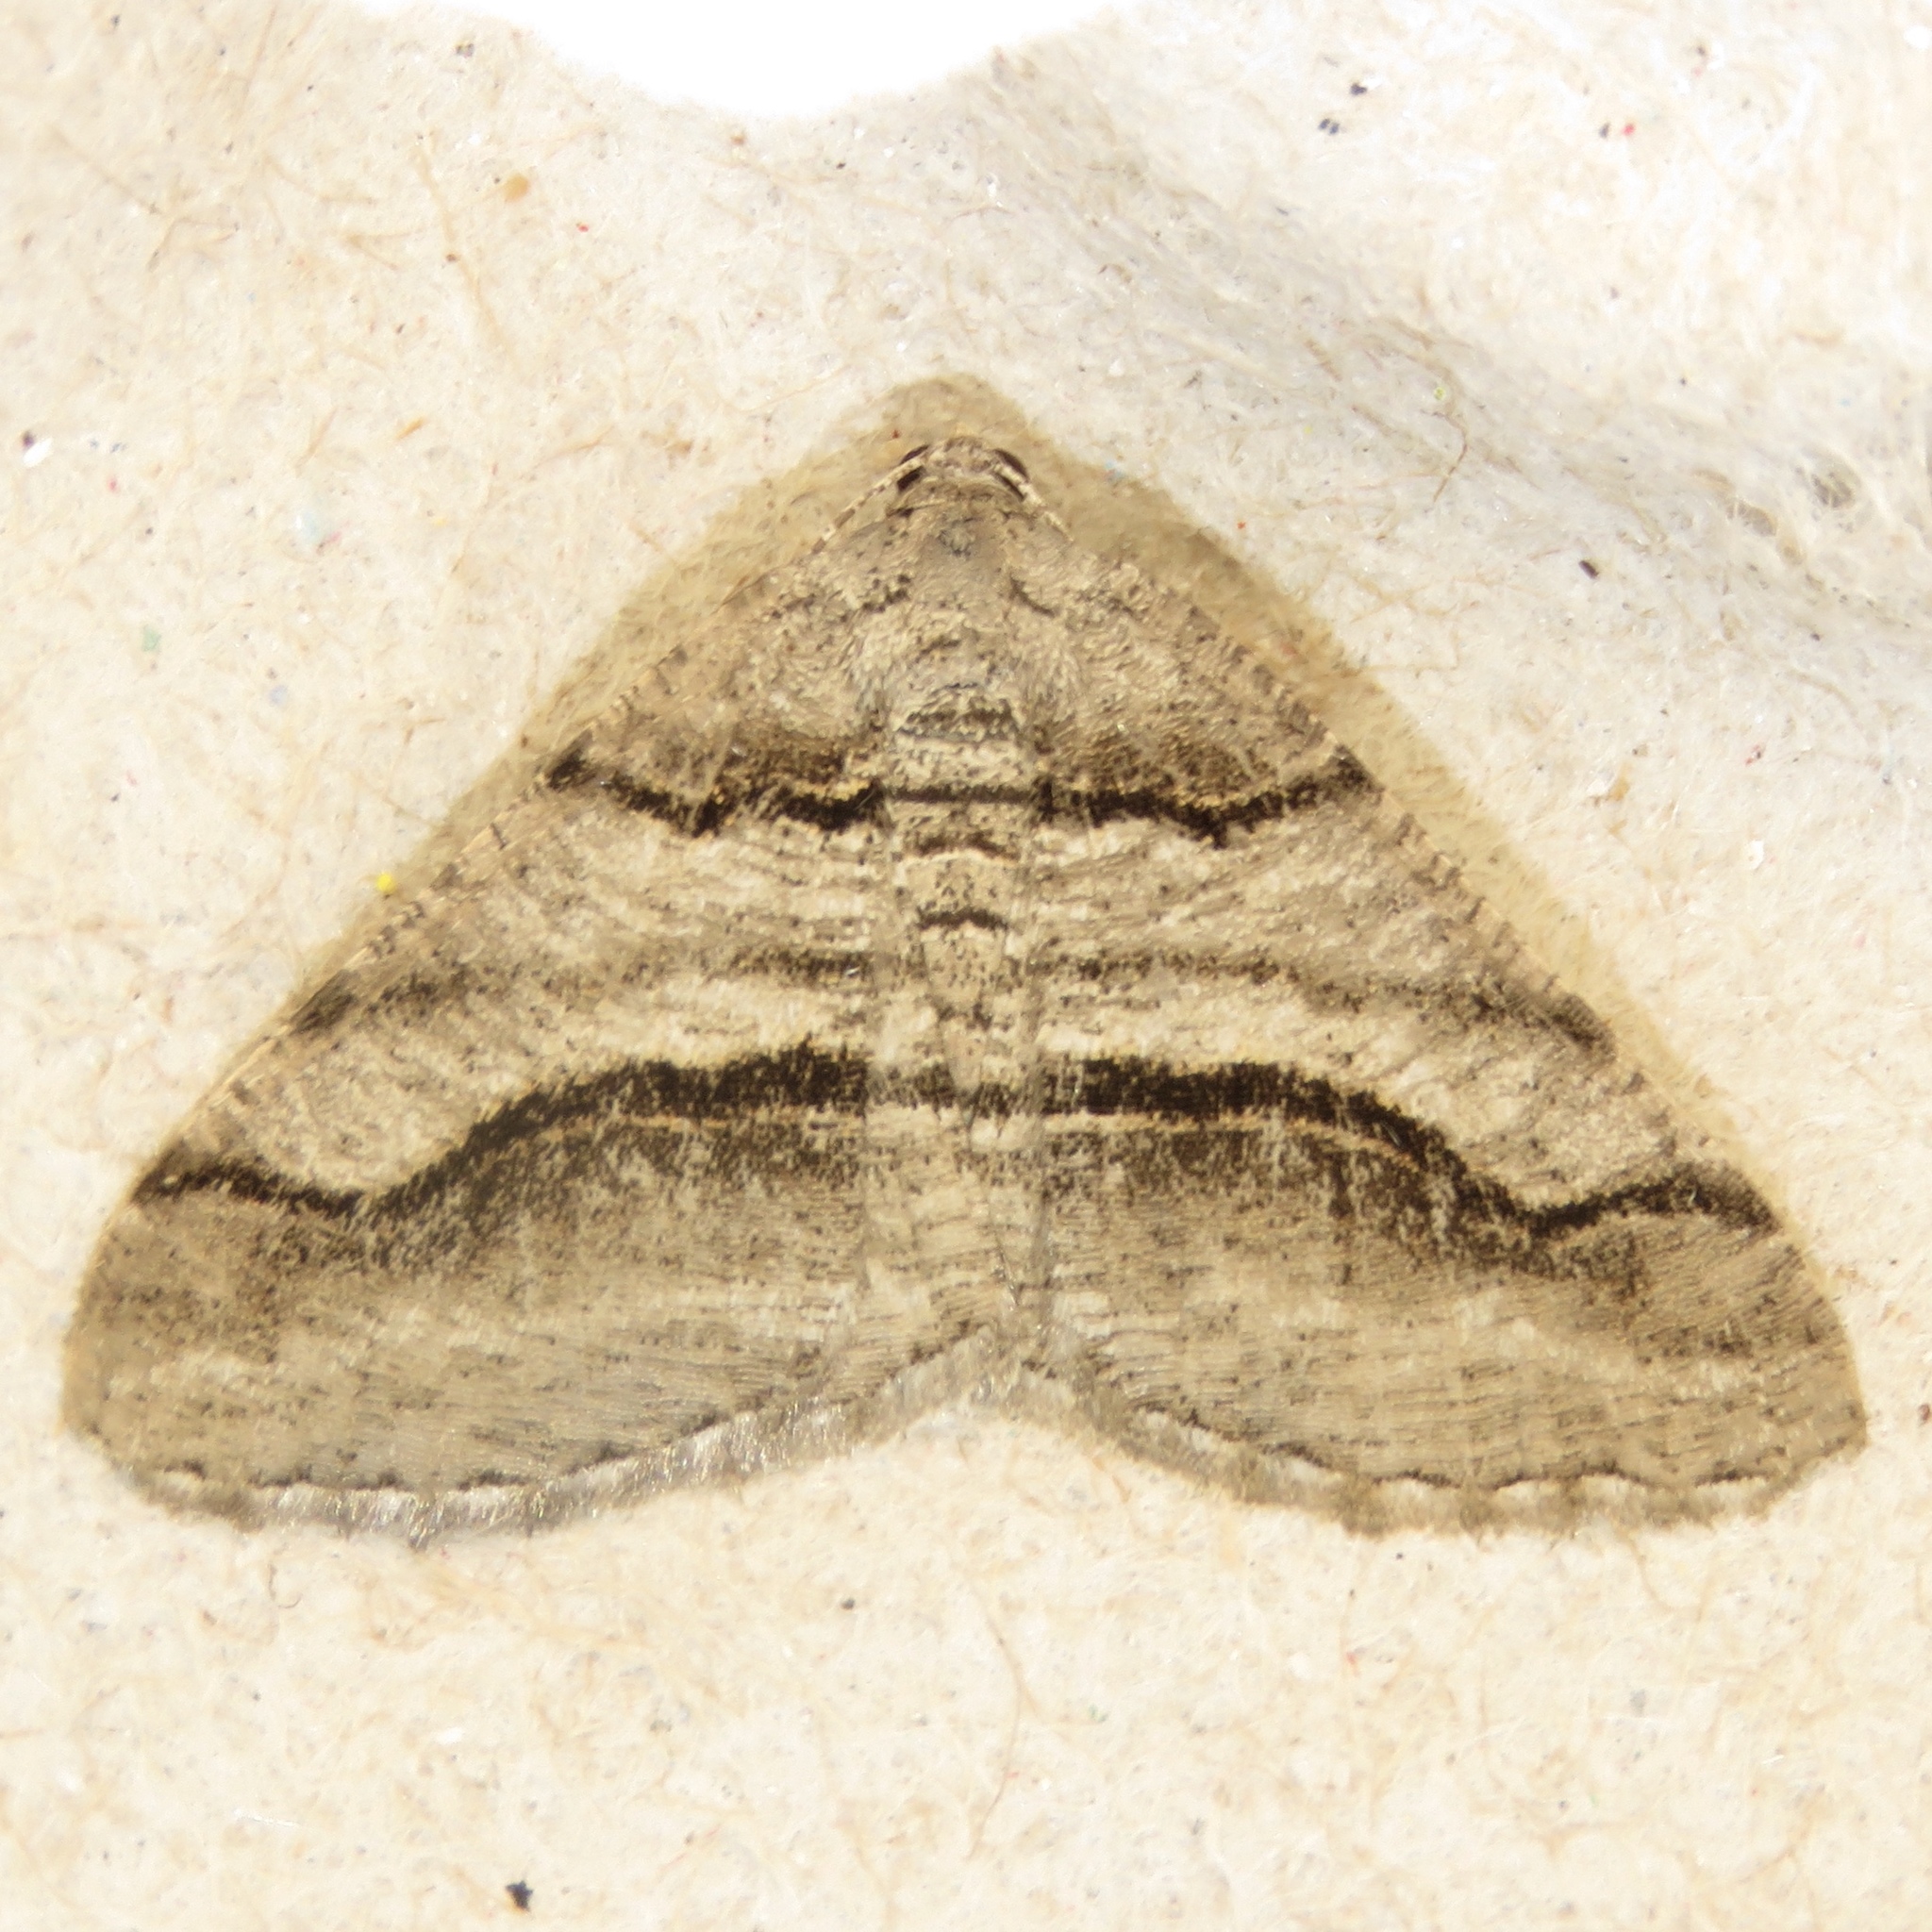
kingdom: Animalia
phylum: Arthropoda
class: Insecta
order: Lepidoptera
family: Geometridae
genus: Digrammia
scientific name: Digrammia continuata
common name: Curve-lined angle
